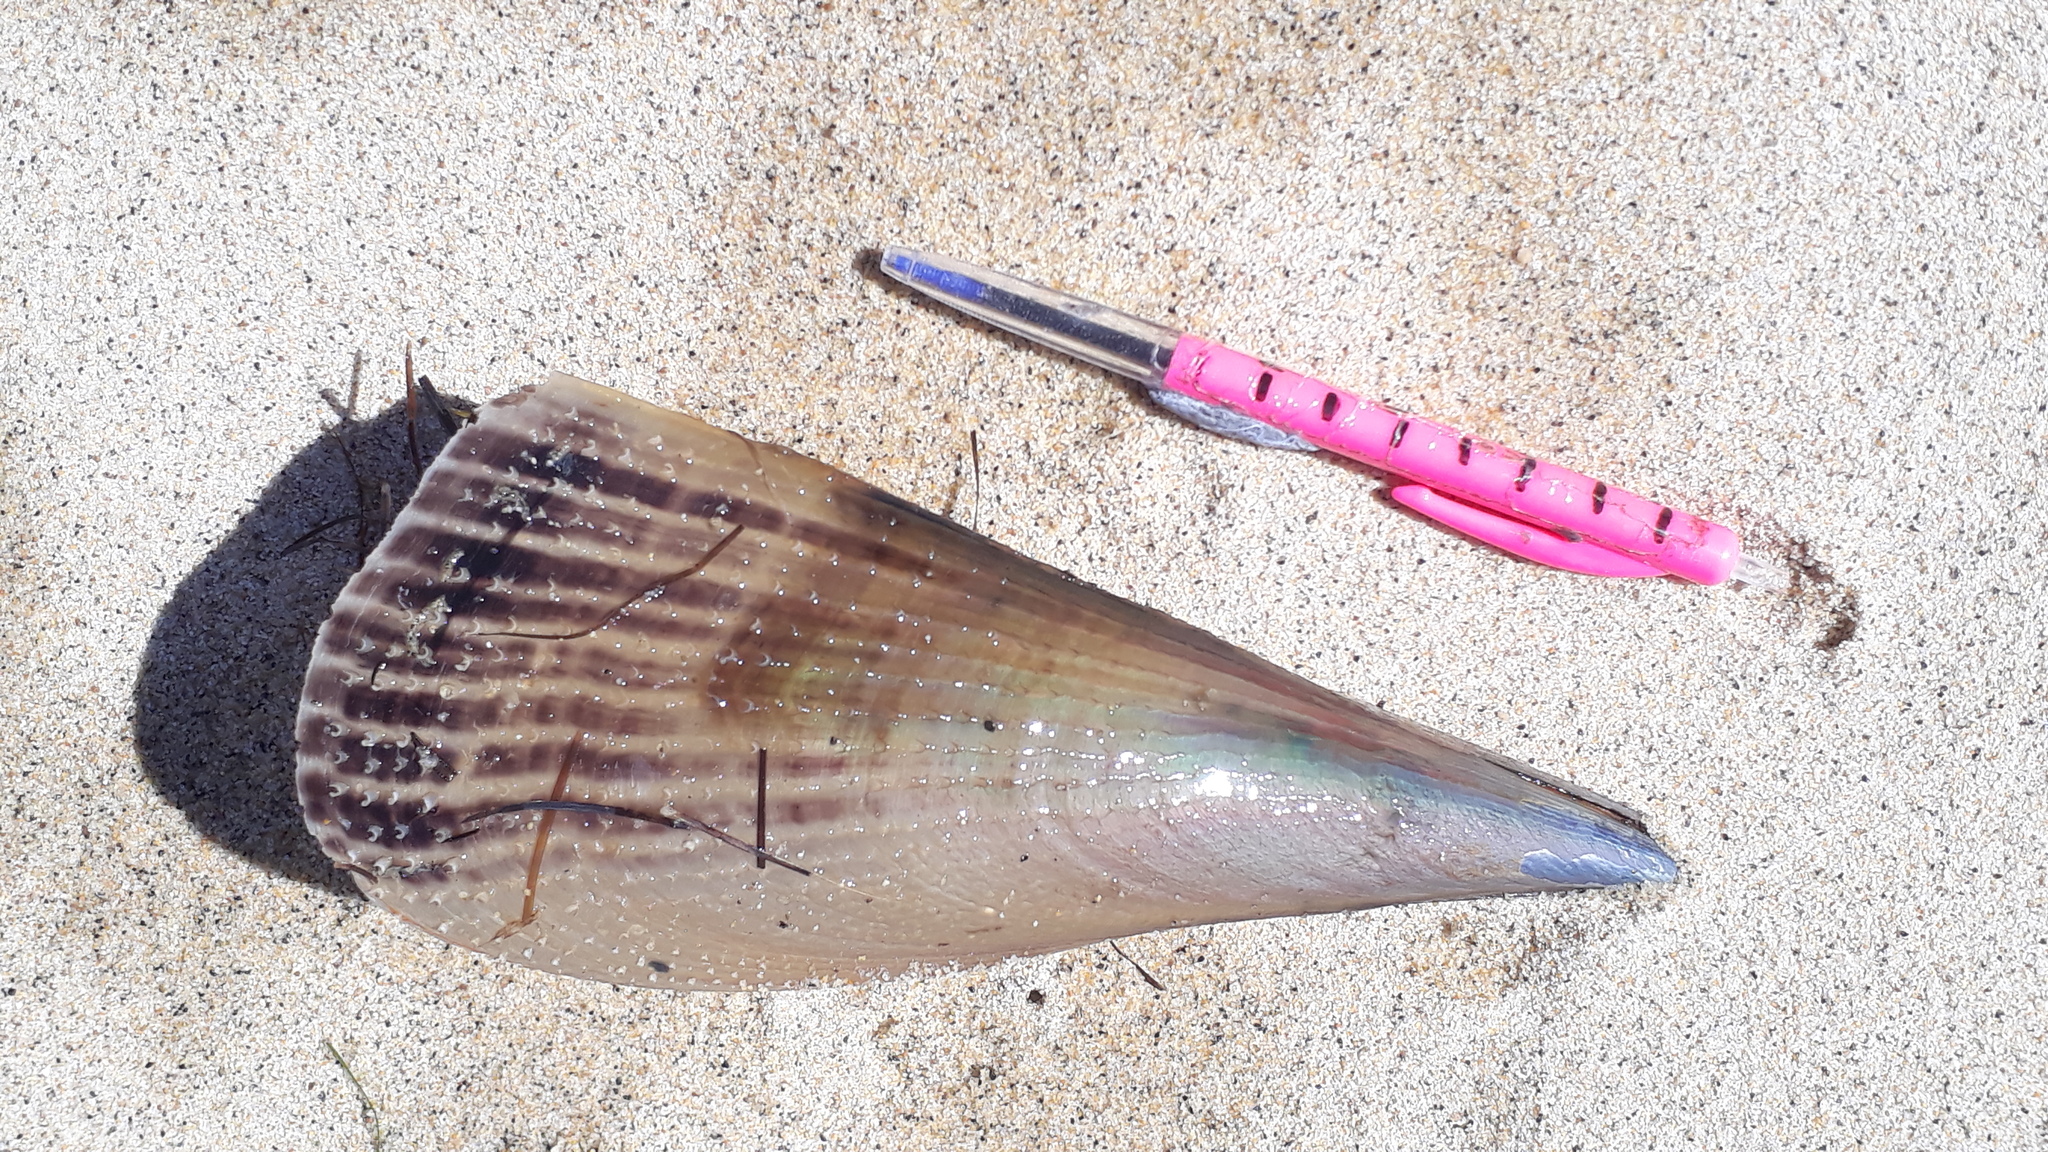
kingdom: Animalia
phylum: Mollusca
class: Bivalvia
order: Ostreida
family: Pinnidae
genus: Atrina
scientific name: Atrina zelandica
